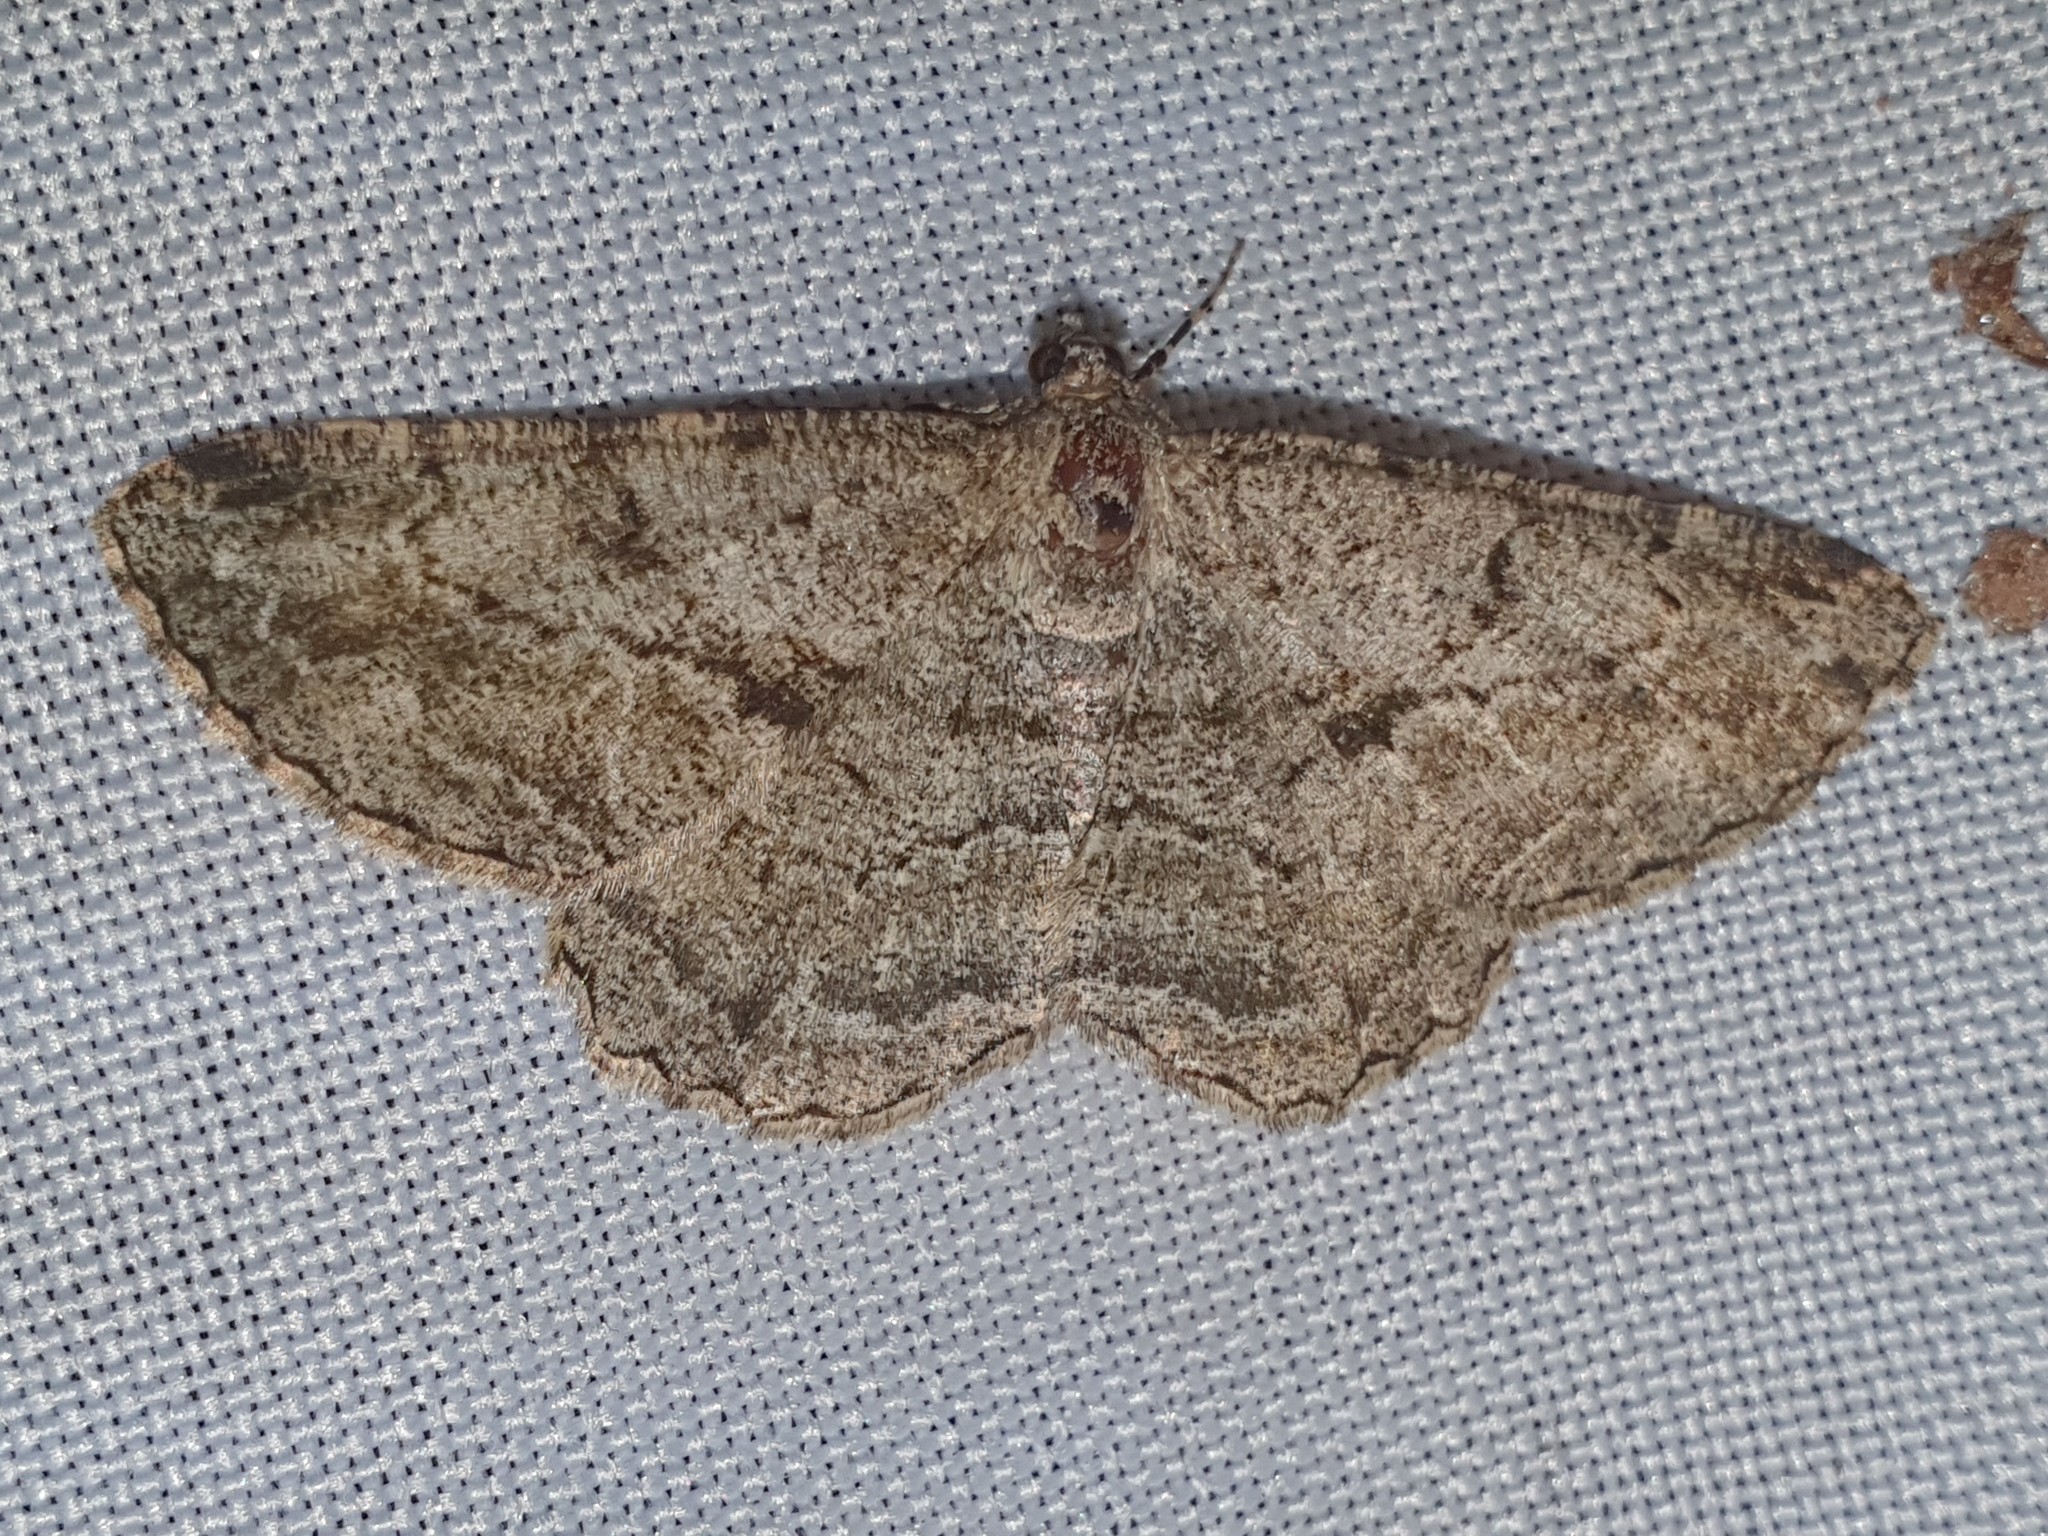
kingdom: Animalia
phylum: Arthropoda
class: Insecta
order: Lepidoptera
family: Geometridae
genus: Peribatodes
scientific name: Peribatodes rhomboidaria
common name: Willow beauty
